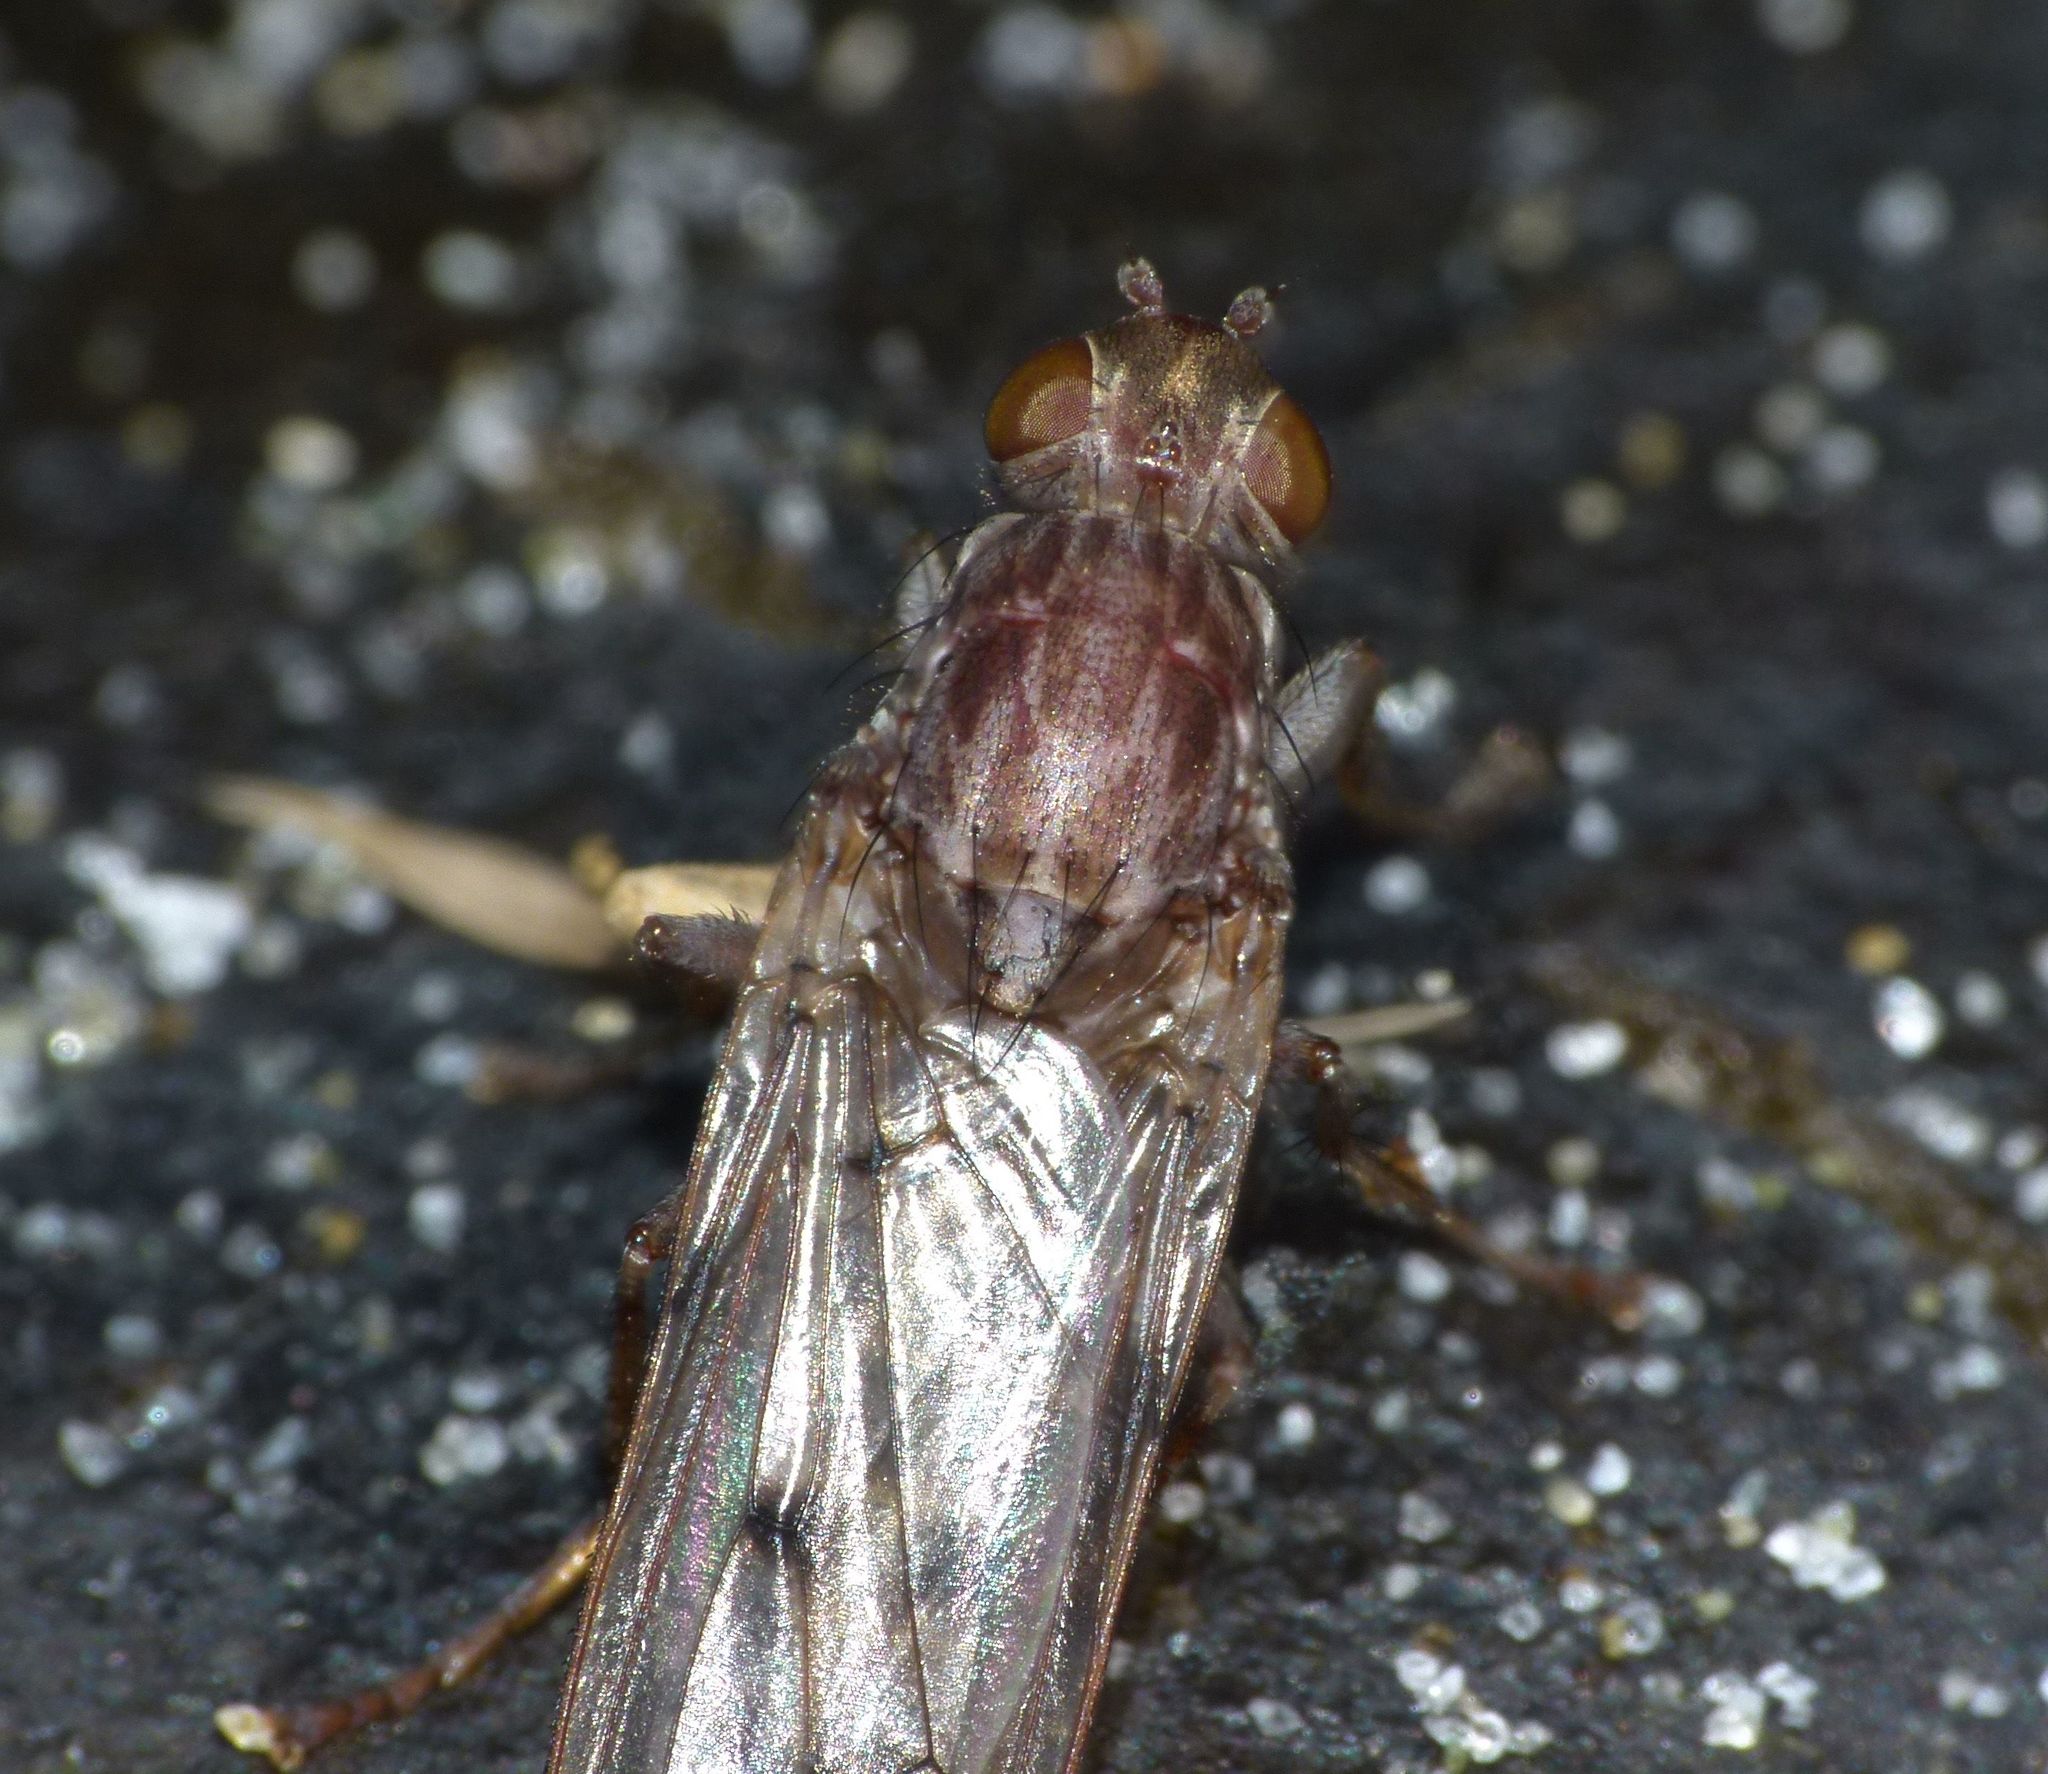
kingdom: Animalia
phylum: Arthropoda
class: Insecta
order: Diptera
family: Helcomyzidae
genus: Maorimyia
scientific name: Maorimyia bipunctata
